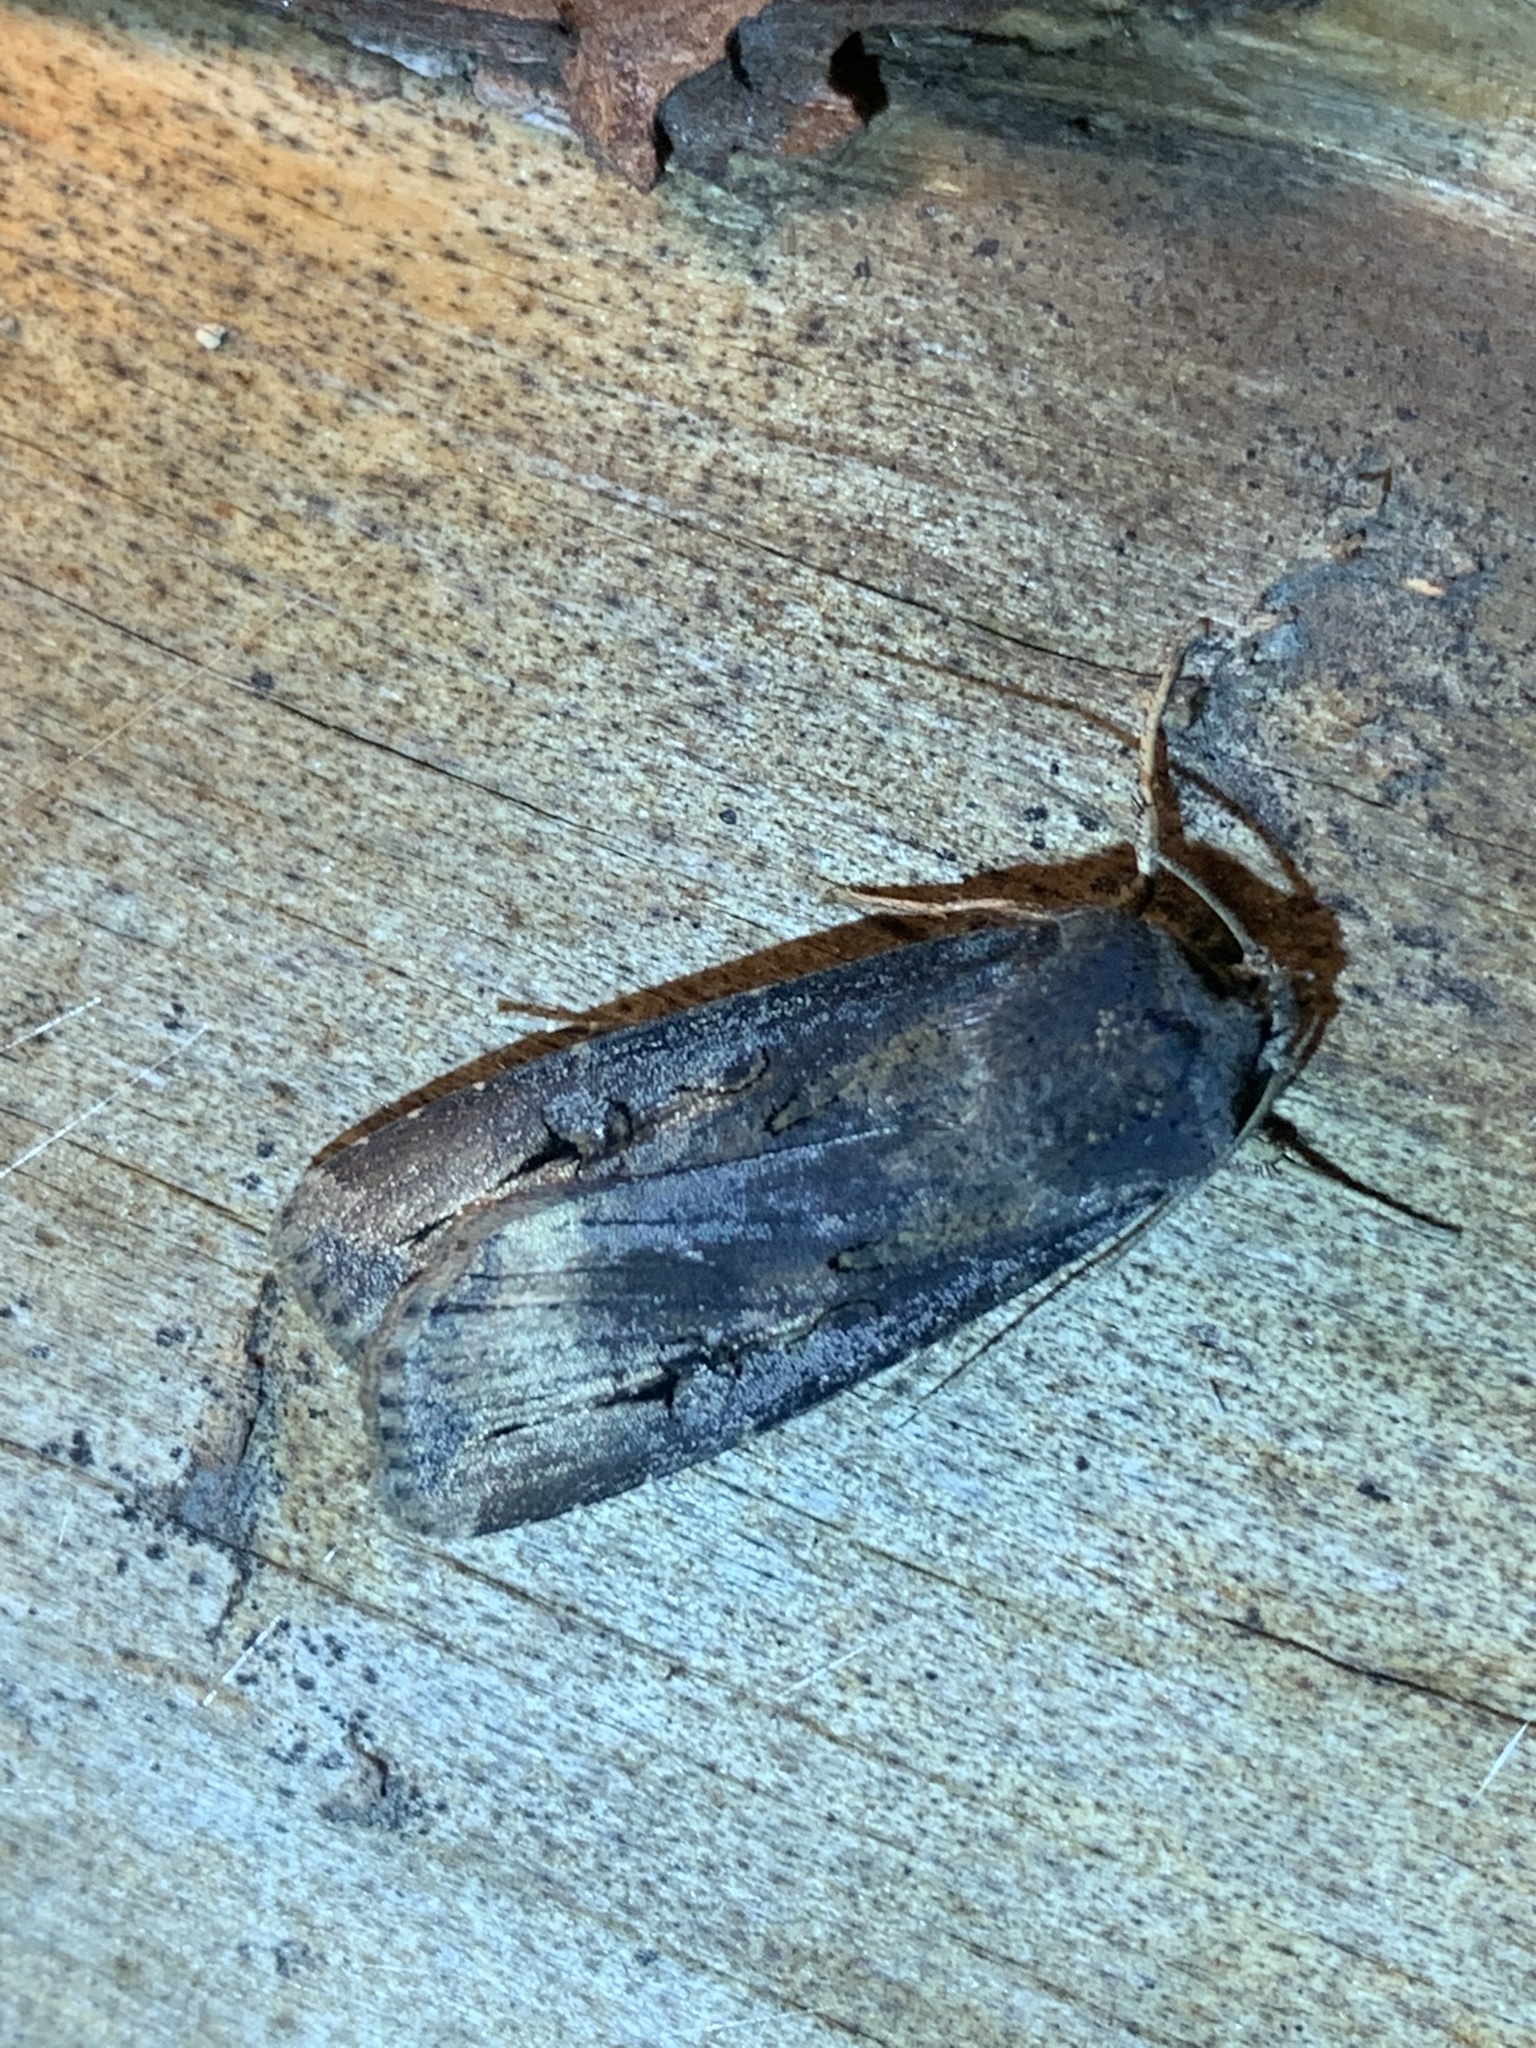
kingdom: Animalia
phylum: Arthropoda
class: Insecta
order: Lepidoptera
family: Noctuidae
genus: Agrotis
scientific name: Agrotis ipsilon
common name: Dark sword-grass
